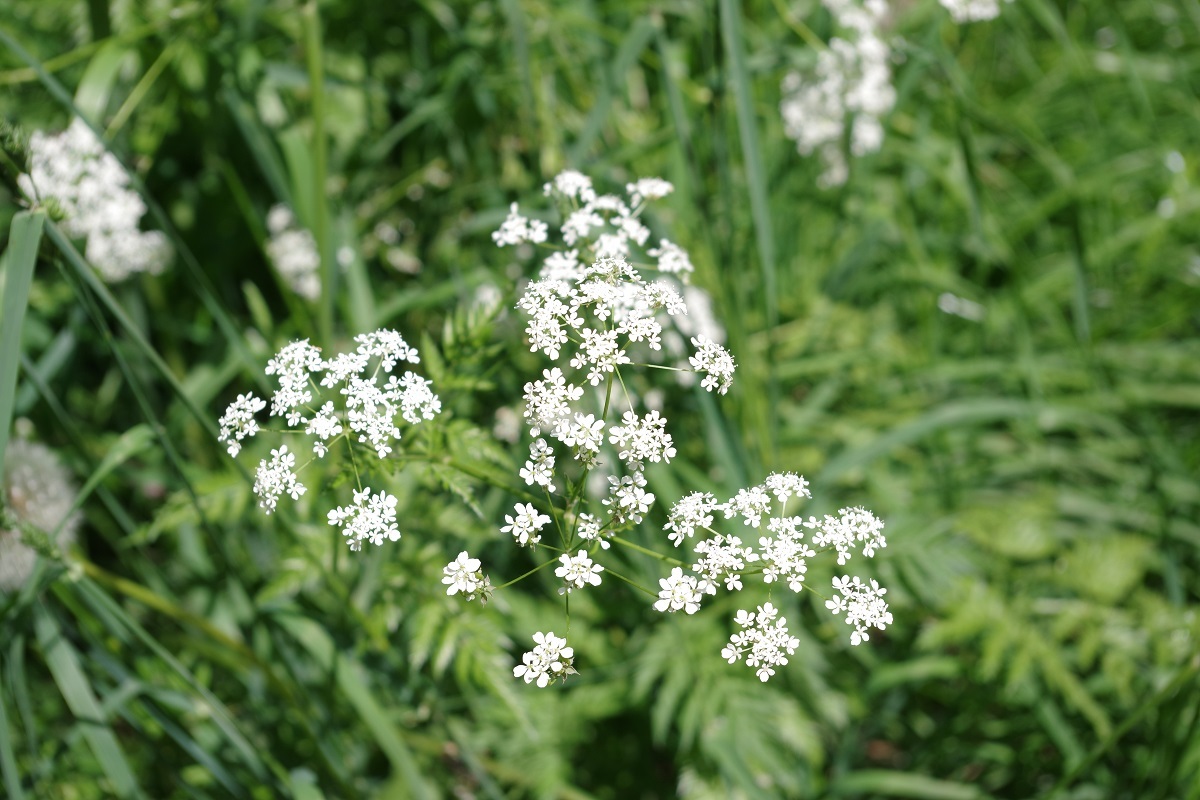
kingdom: Plantae
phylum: Tracheophyta
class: Magnoliopsida
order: Apiales
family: Apiaceae
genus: Anthriscus
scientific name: Anthriscus sylvestris
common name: Cow parsley
